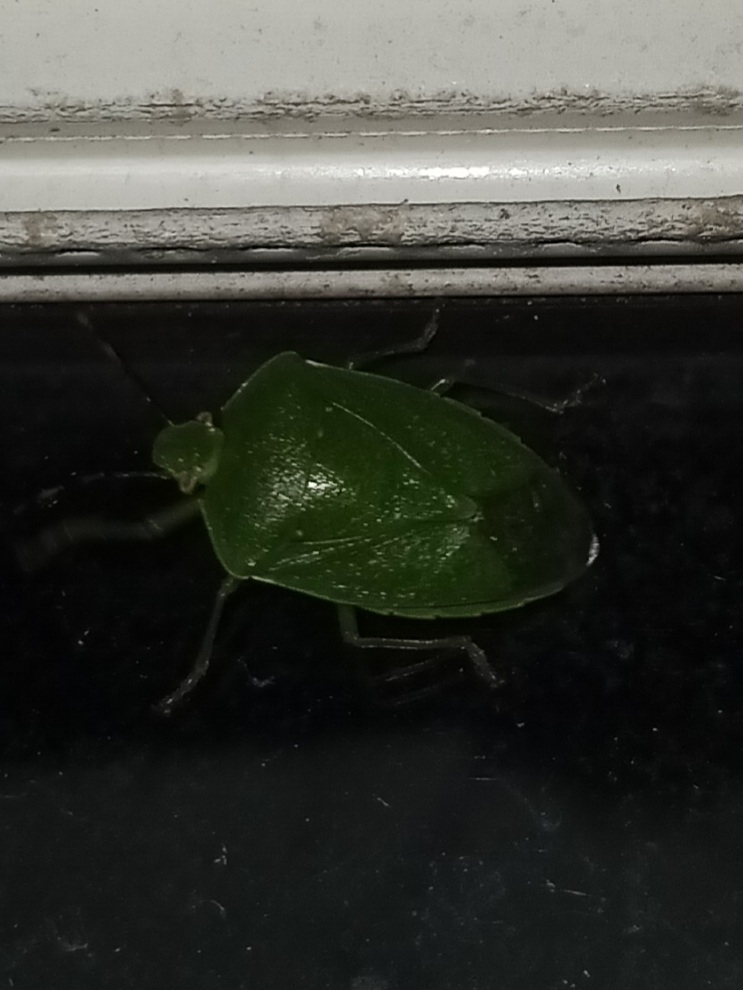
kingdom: Animalia
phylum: Arthropoda
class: Insecta
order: Hemiptera
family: Pentatomidae
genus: Chinavia
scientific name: Chinavia hilaris
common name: Green stink bug
